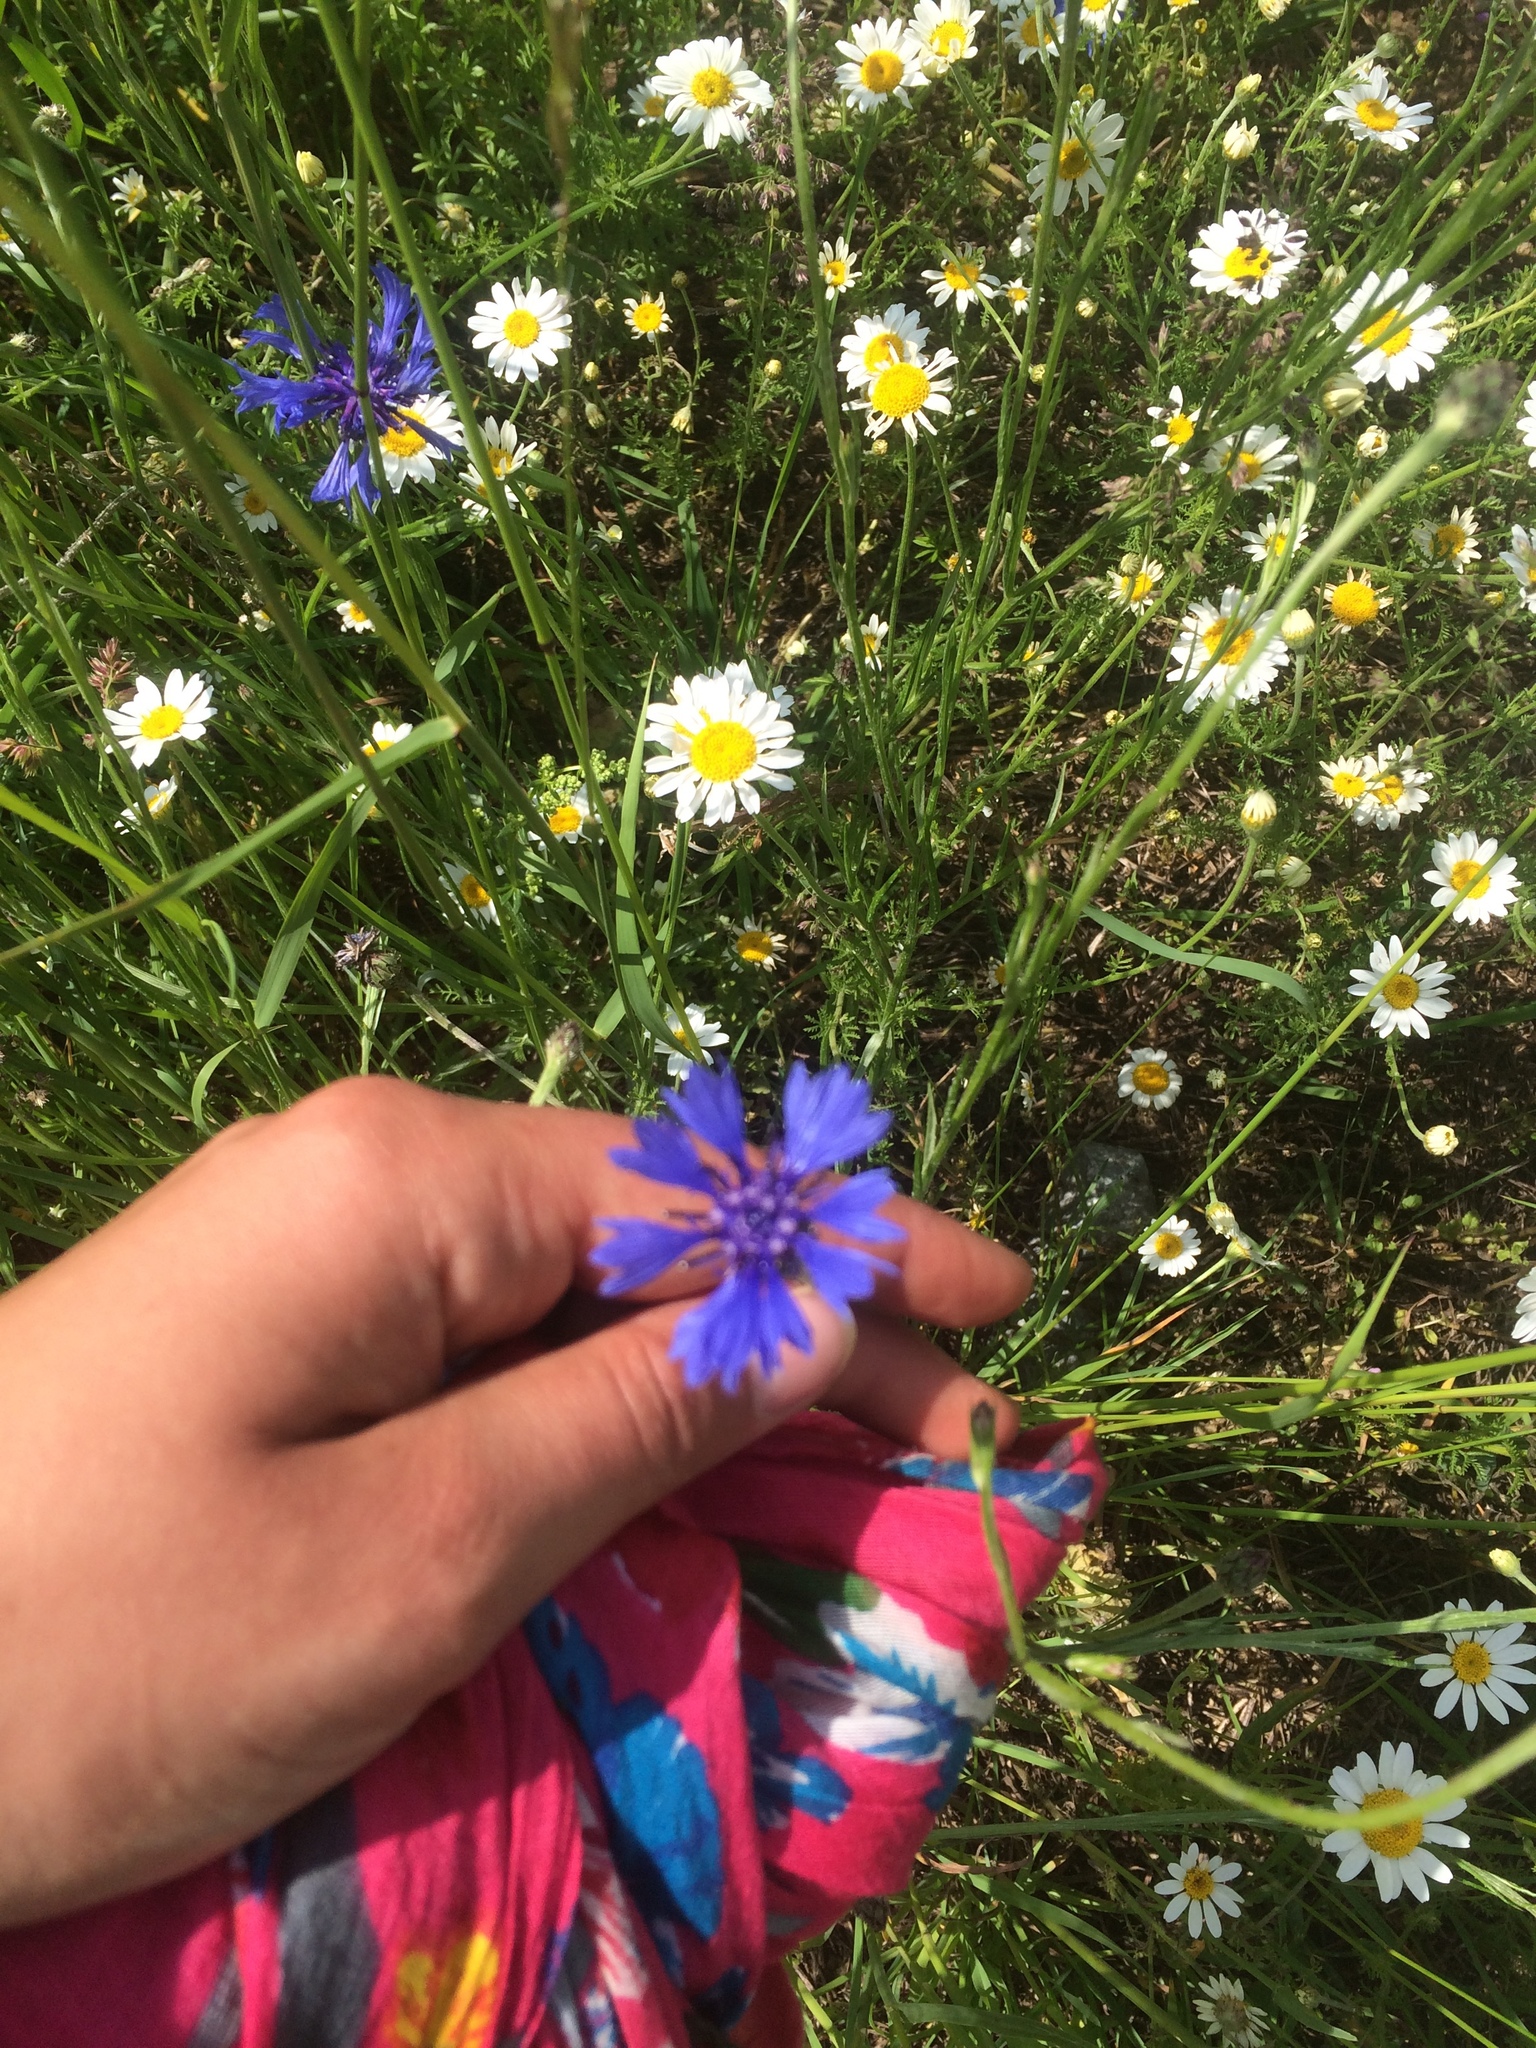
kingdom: Plantae
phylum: Tracheophyta
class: Magnoliopsida
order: Asterales
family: Asteraceae
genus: Centaurea
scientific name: Centaurea cyanus
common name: Cornflower
